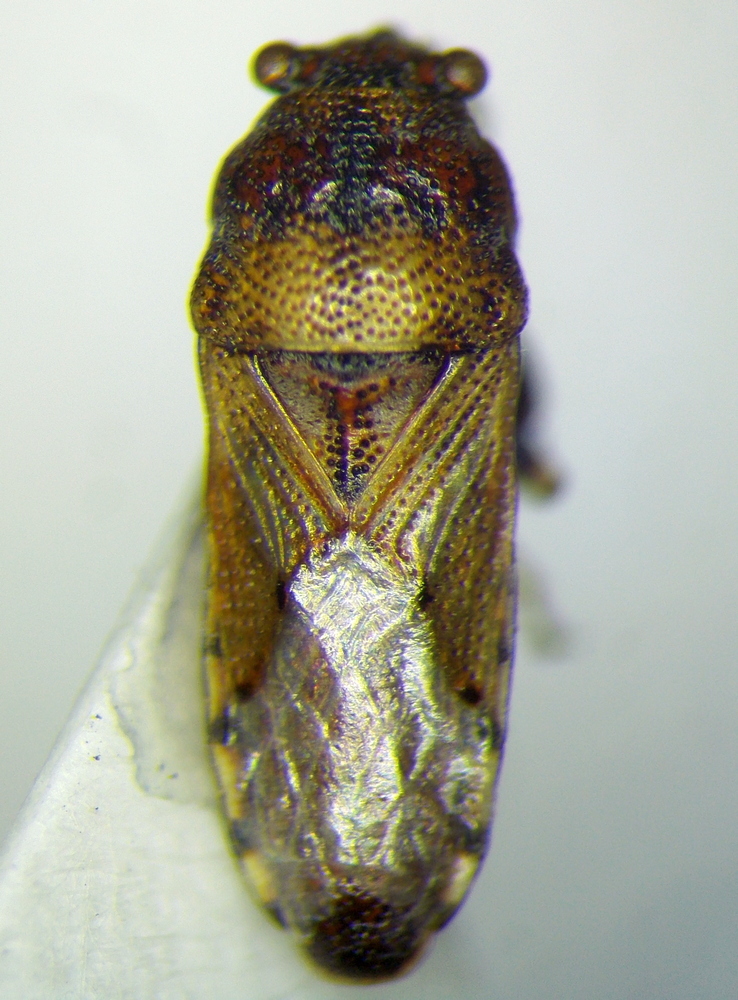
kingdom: Animalia
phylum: Arthropoda
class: Insecta
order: Hemiptera
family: Pachygronthidae
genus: Phlegyas
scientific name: Phlegyas annulicrus
